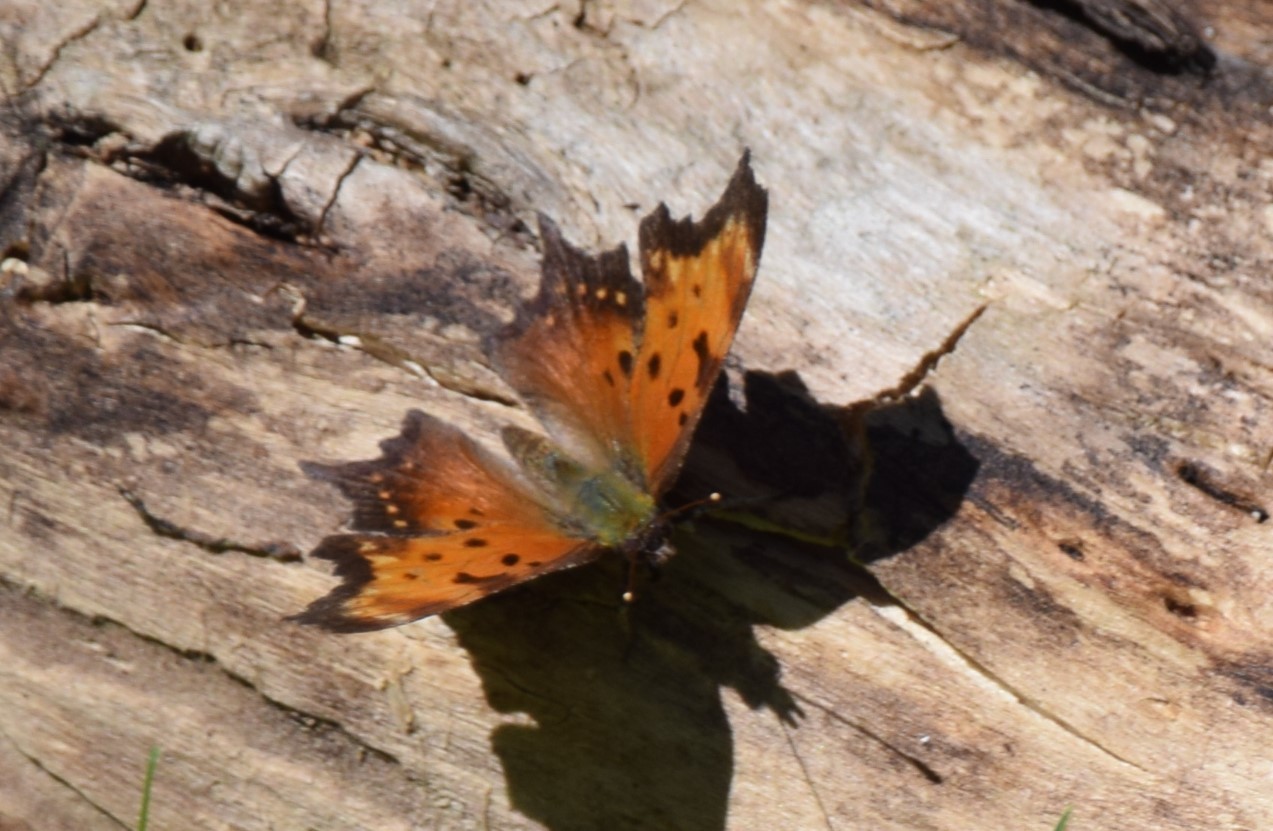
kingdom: Animalia
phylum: Arthropoda
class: Insecta
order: Lepidoptera
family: Nymphalidae
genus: Polygonia
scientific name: Polygonia progne
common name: Gray comma
